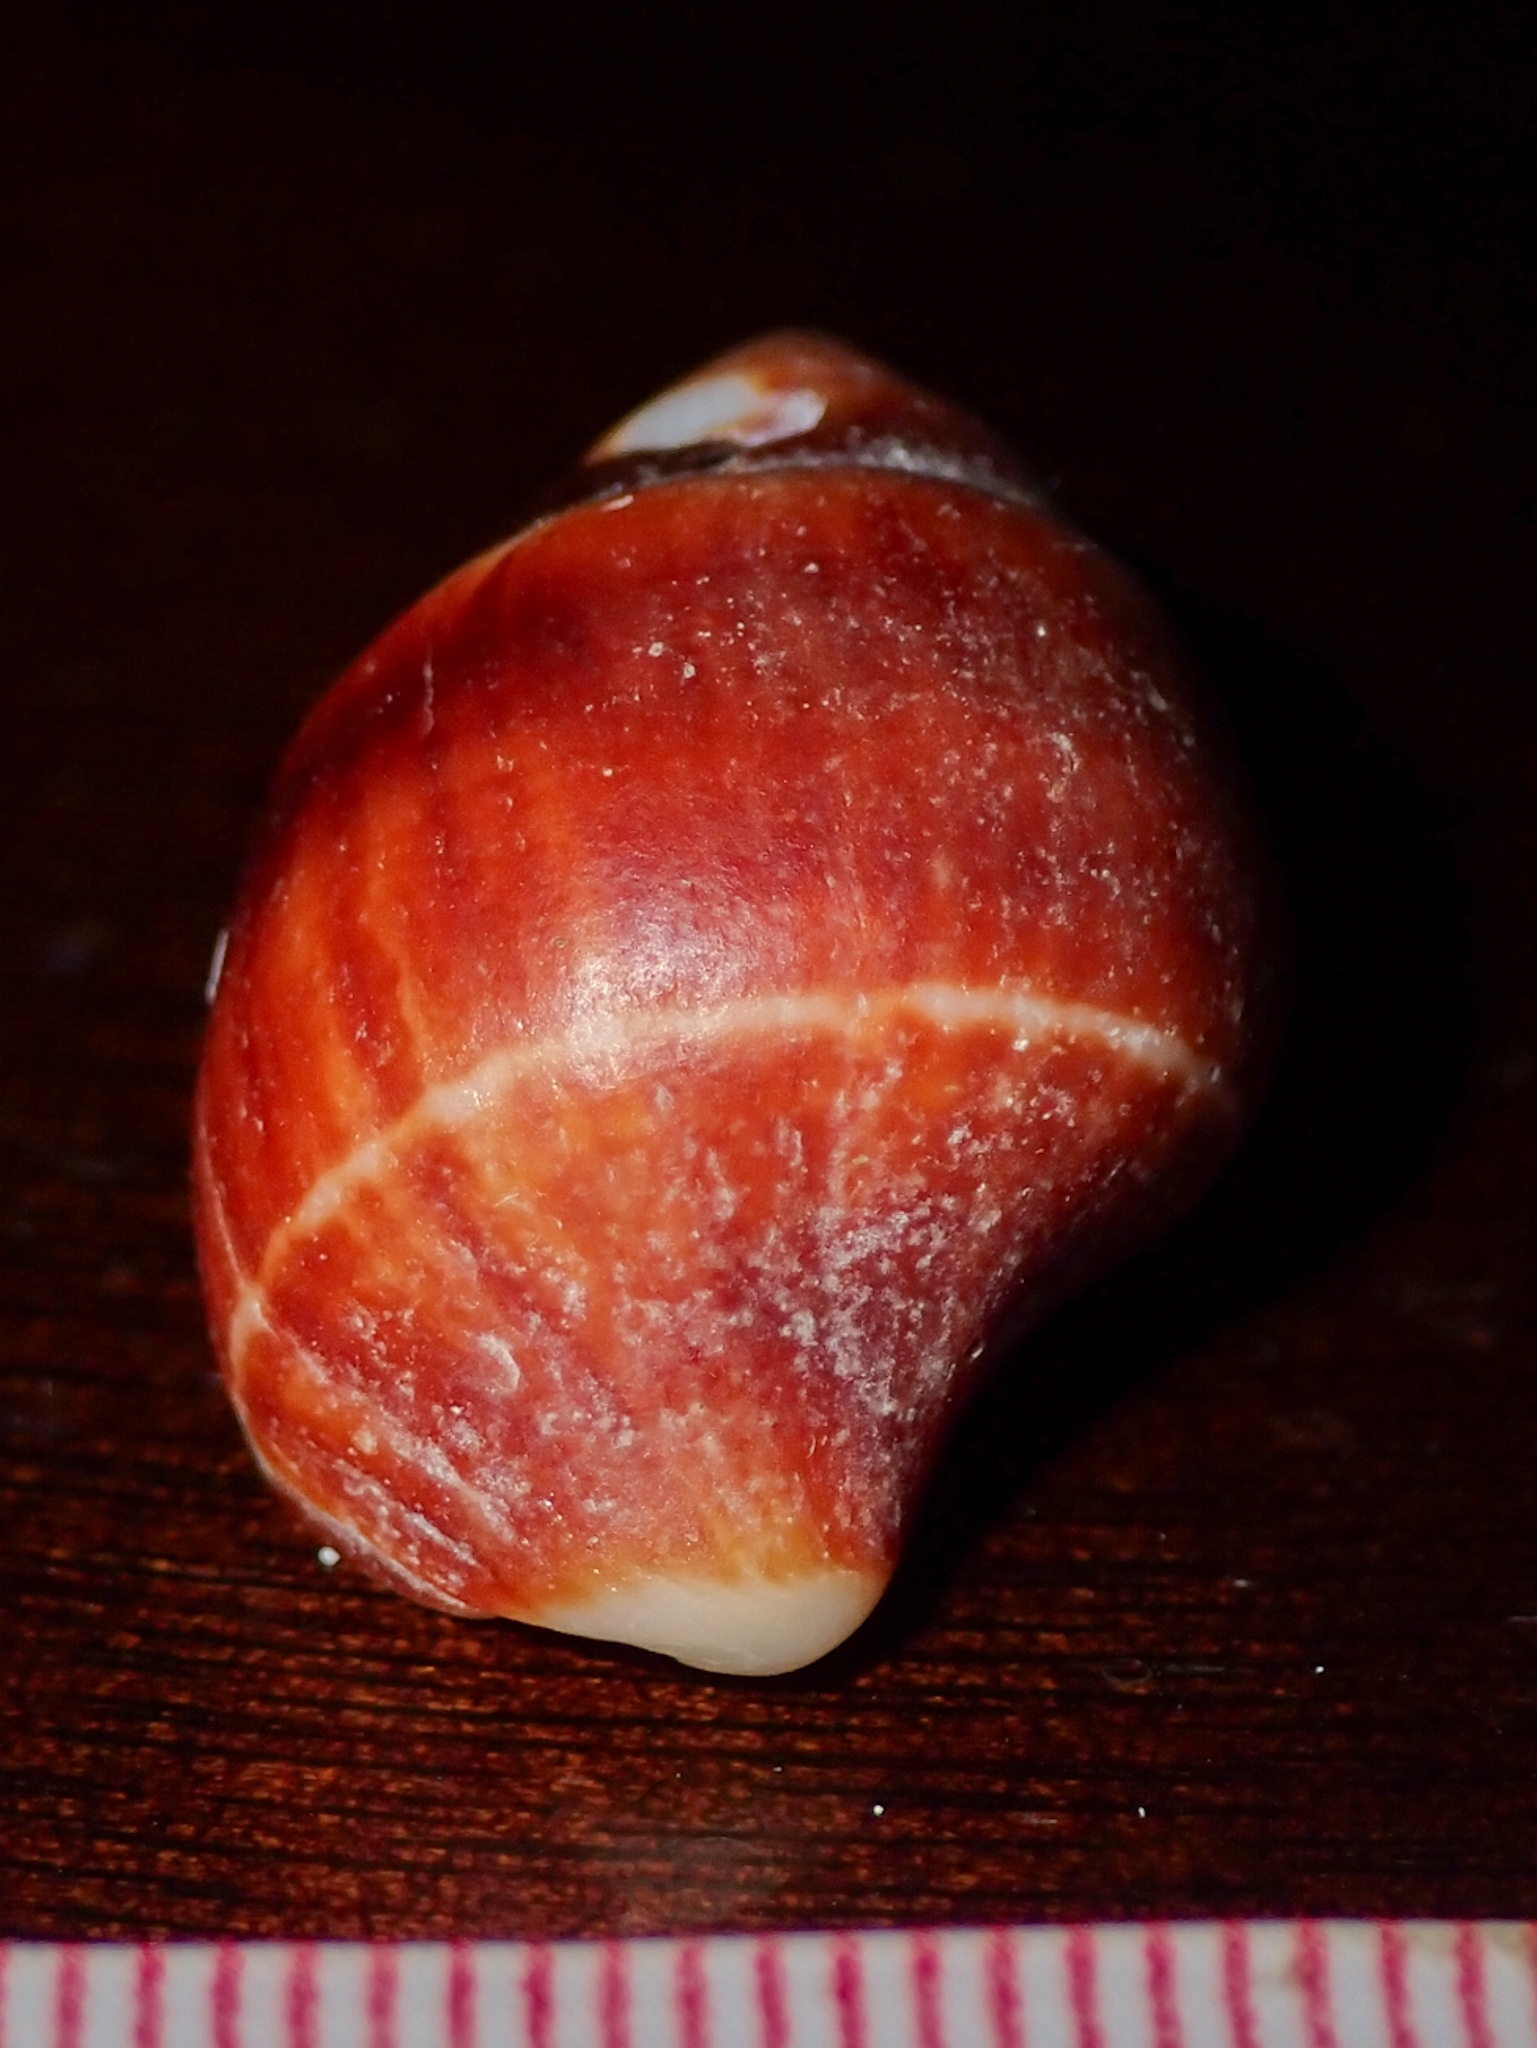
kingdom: Animalia
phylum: Mollusca
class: Gastropoda
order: Neogastropoda
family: Fasciolariidae
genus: Leucozonia
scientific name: Leucozonia leucozonalis
